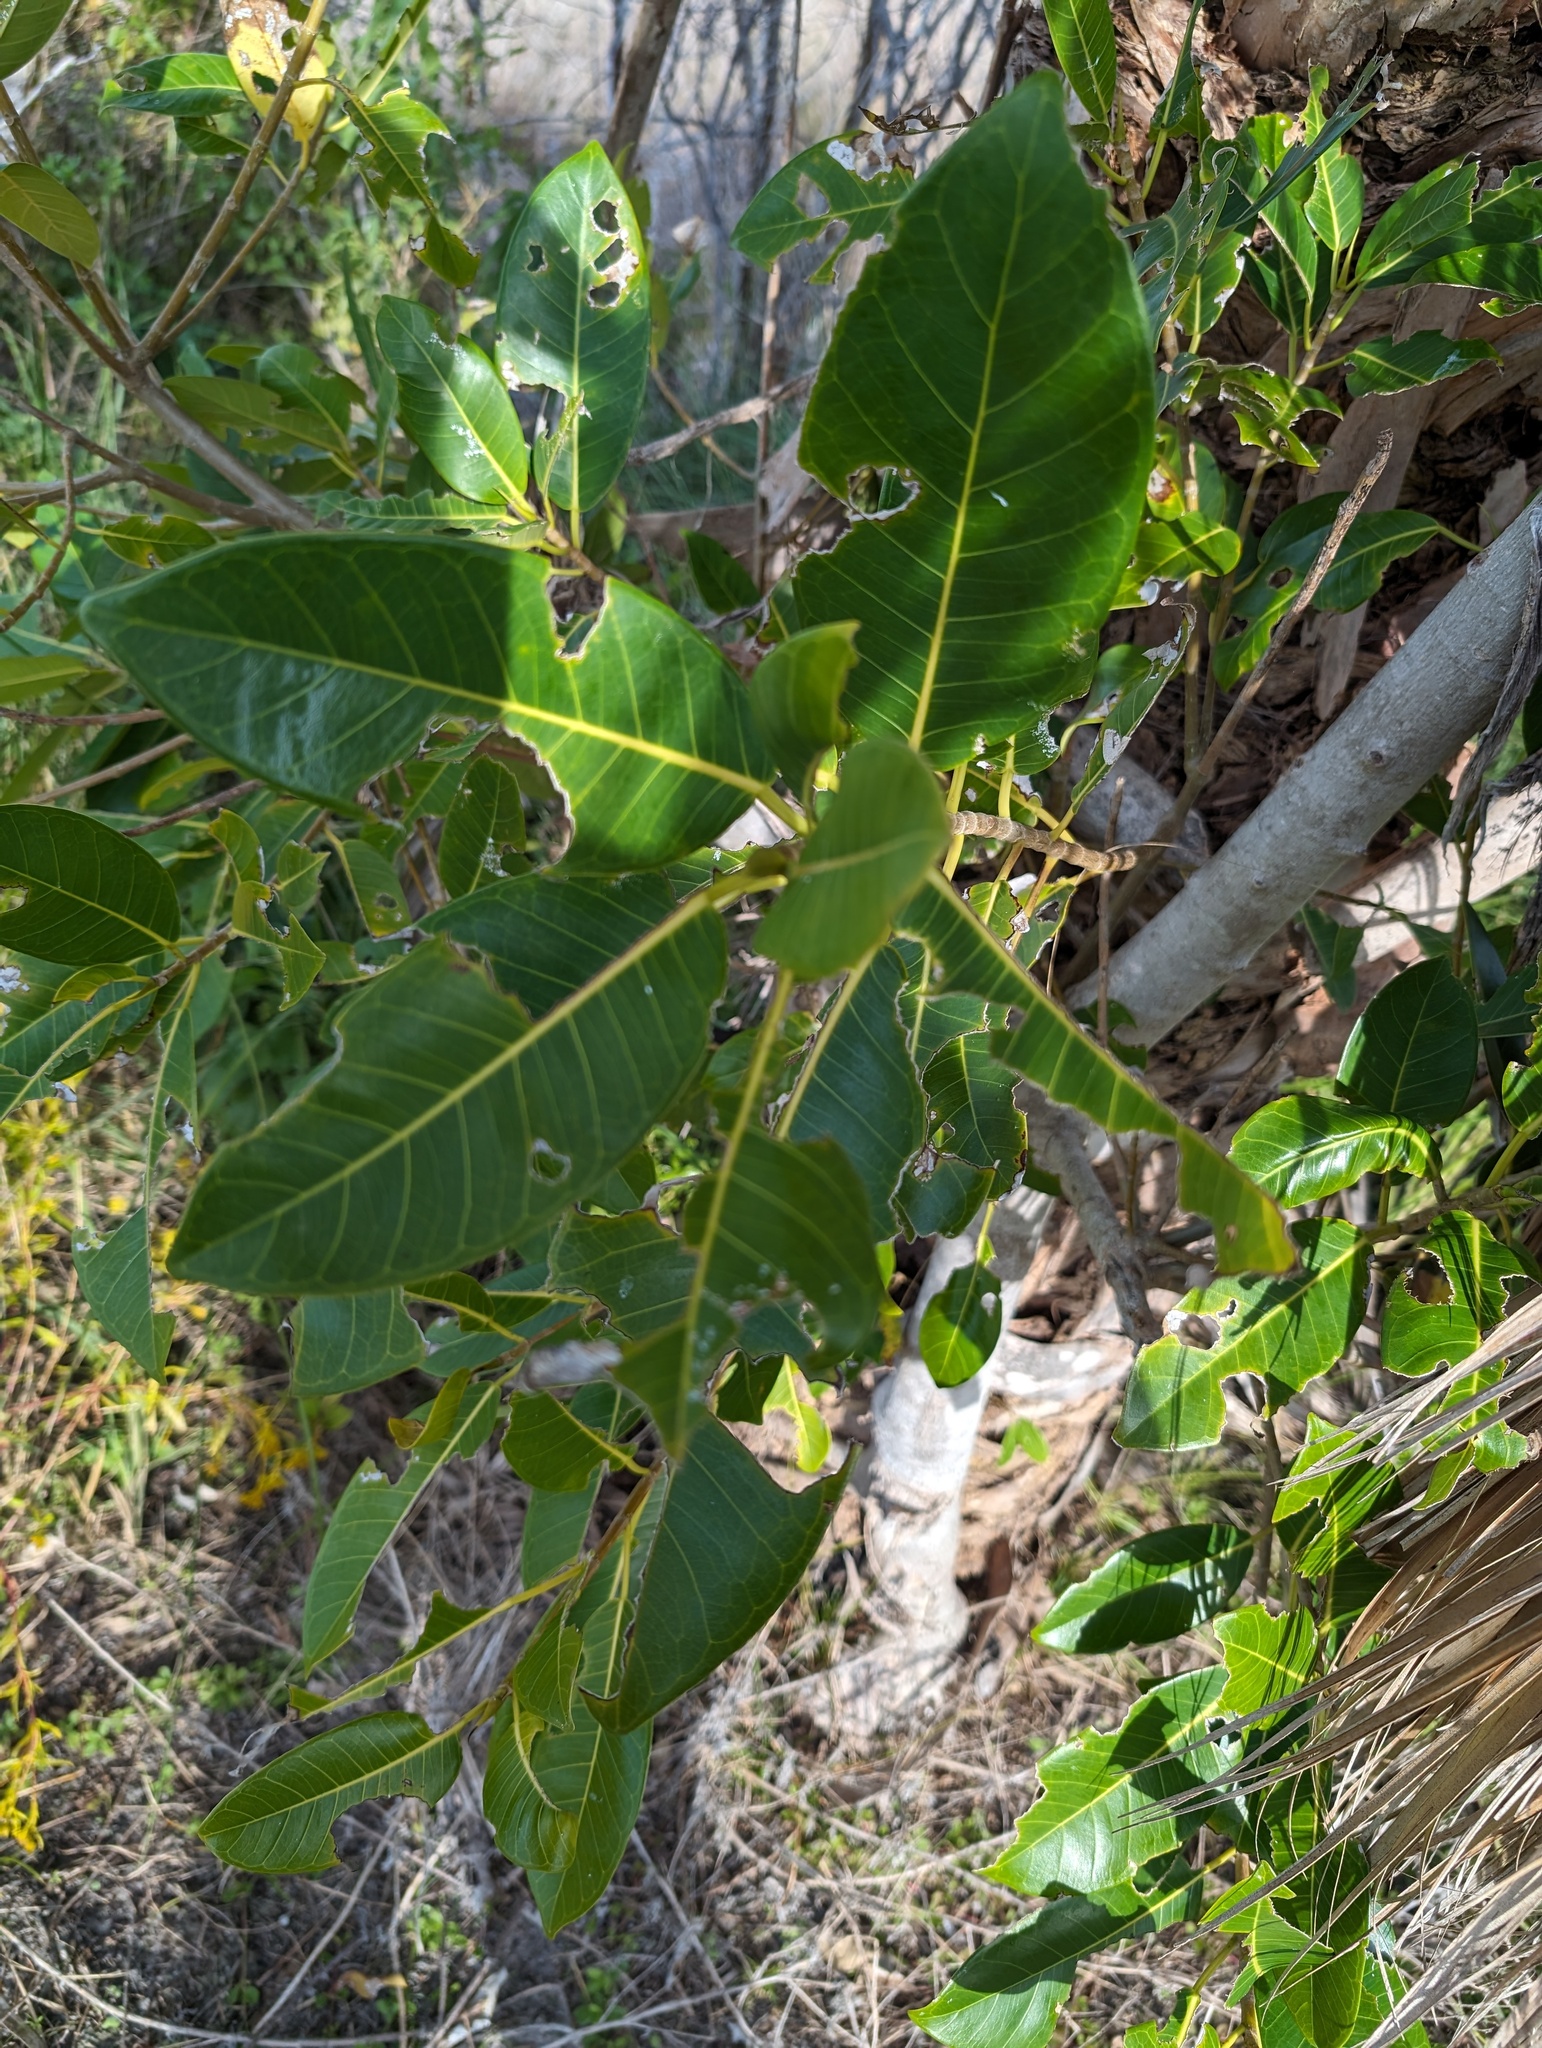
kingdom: Plantae
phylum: Tracheophyta
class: Magnoliopsida
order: Rosales
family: Moraceae
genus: Ficus
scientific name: Ficus aurea
